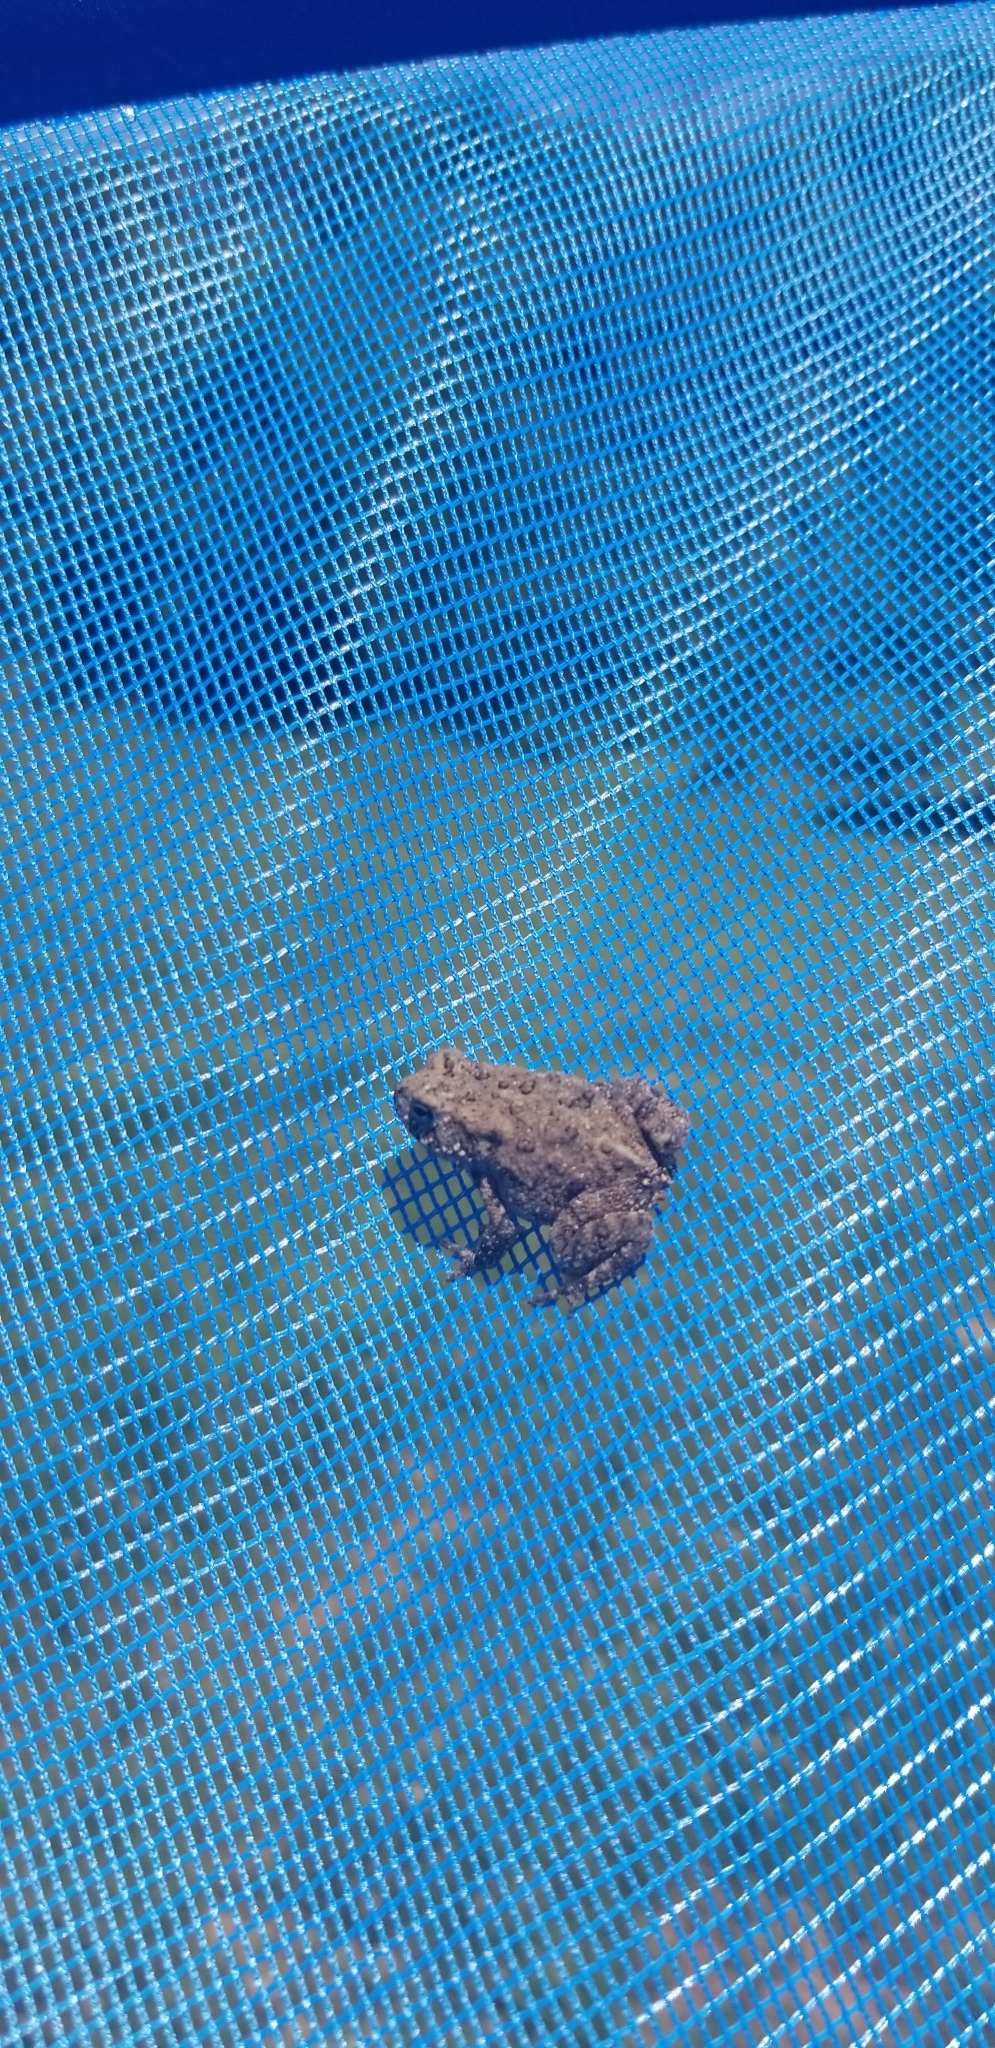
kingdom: Animalia
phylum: Chordata
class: Amphibia
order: Anura
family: Bufonidae
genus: Anaxyrus
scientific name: Anaxyrus americanus
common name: American toad
